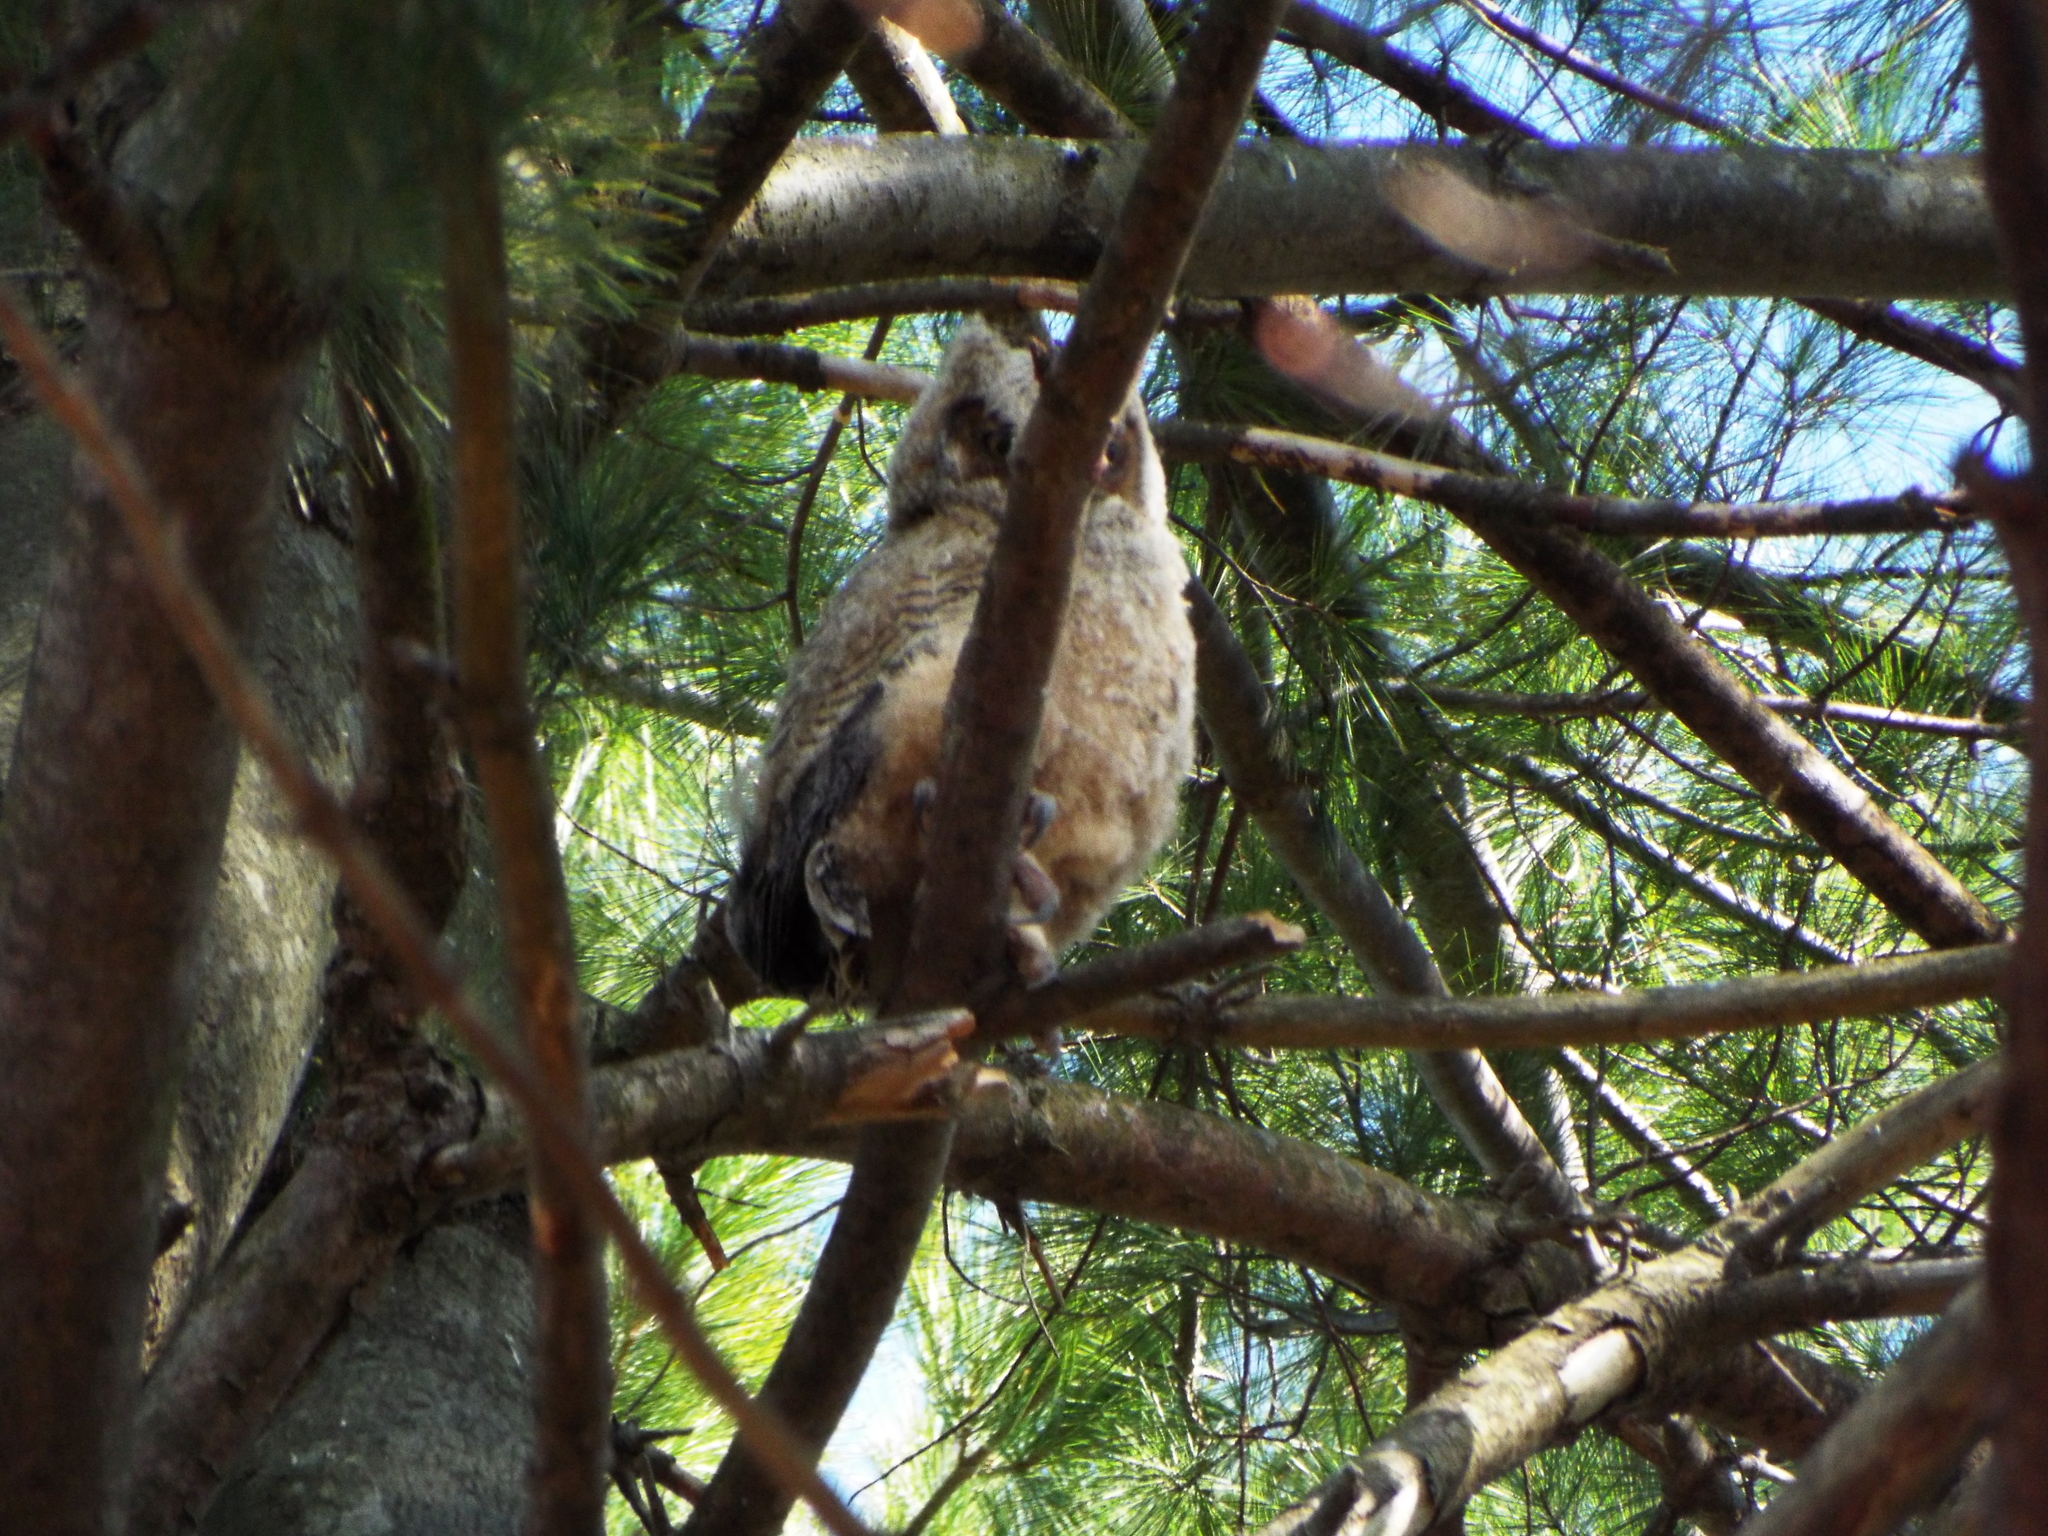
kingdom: Animalia
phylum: Chordata
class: Aves
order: Strigiformes
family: Strigidae
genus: Bubo
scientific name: Bubo virginianus
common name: Great horned owl
